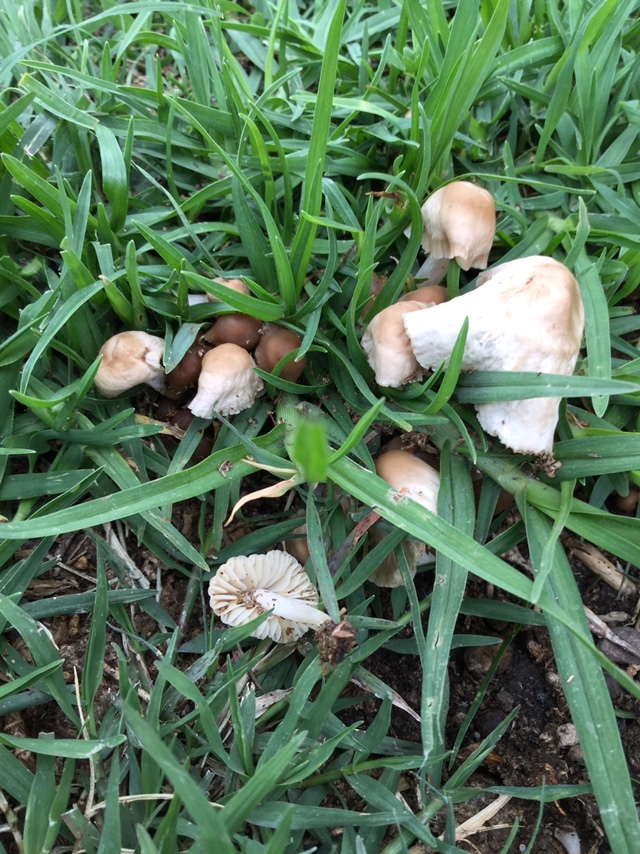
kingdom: Fungi
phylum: Basidiomycota
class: Agaricomycetes
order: Agaricales
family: Marasmiaceae
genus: Marasmius
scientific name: Marasmius oreades
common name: Fairy ring champignon
